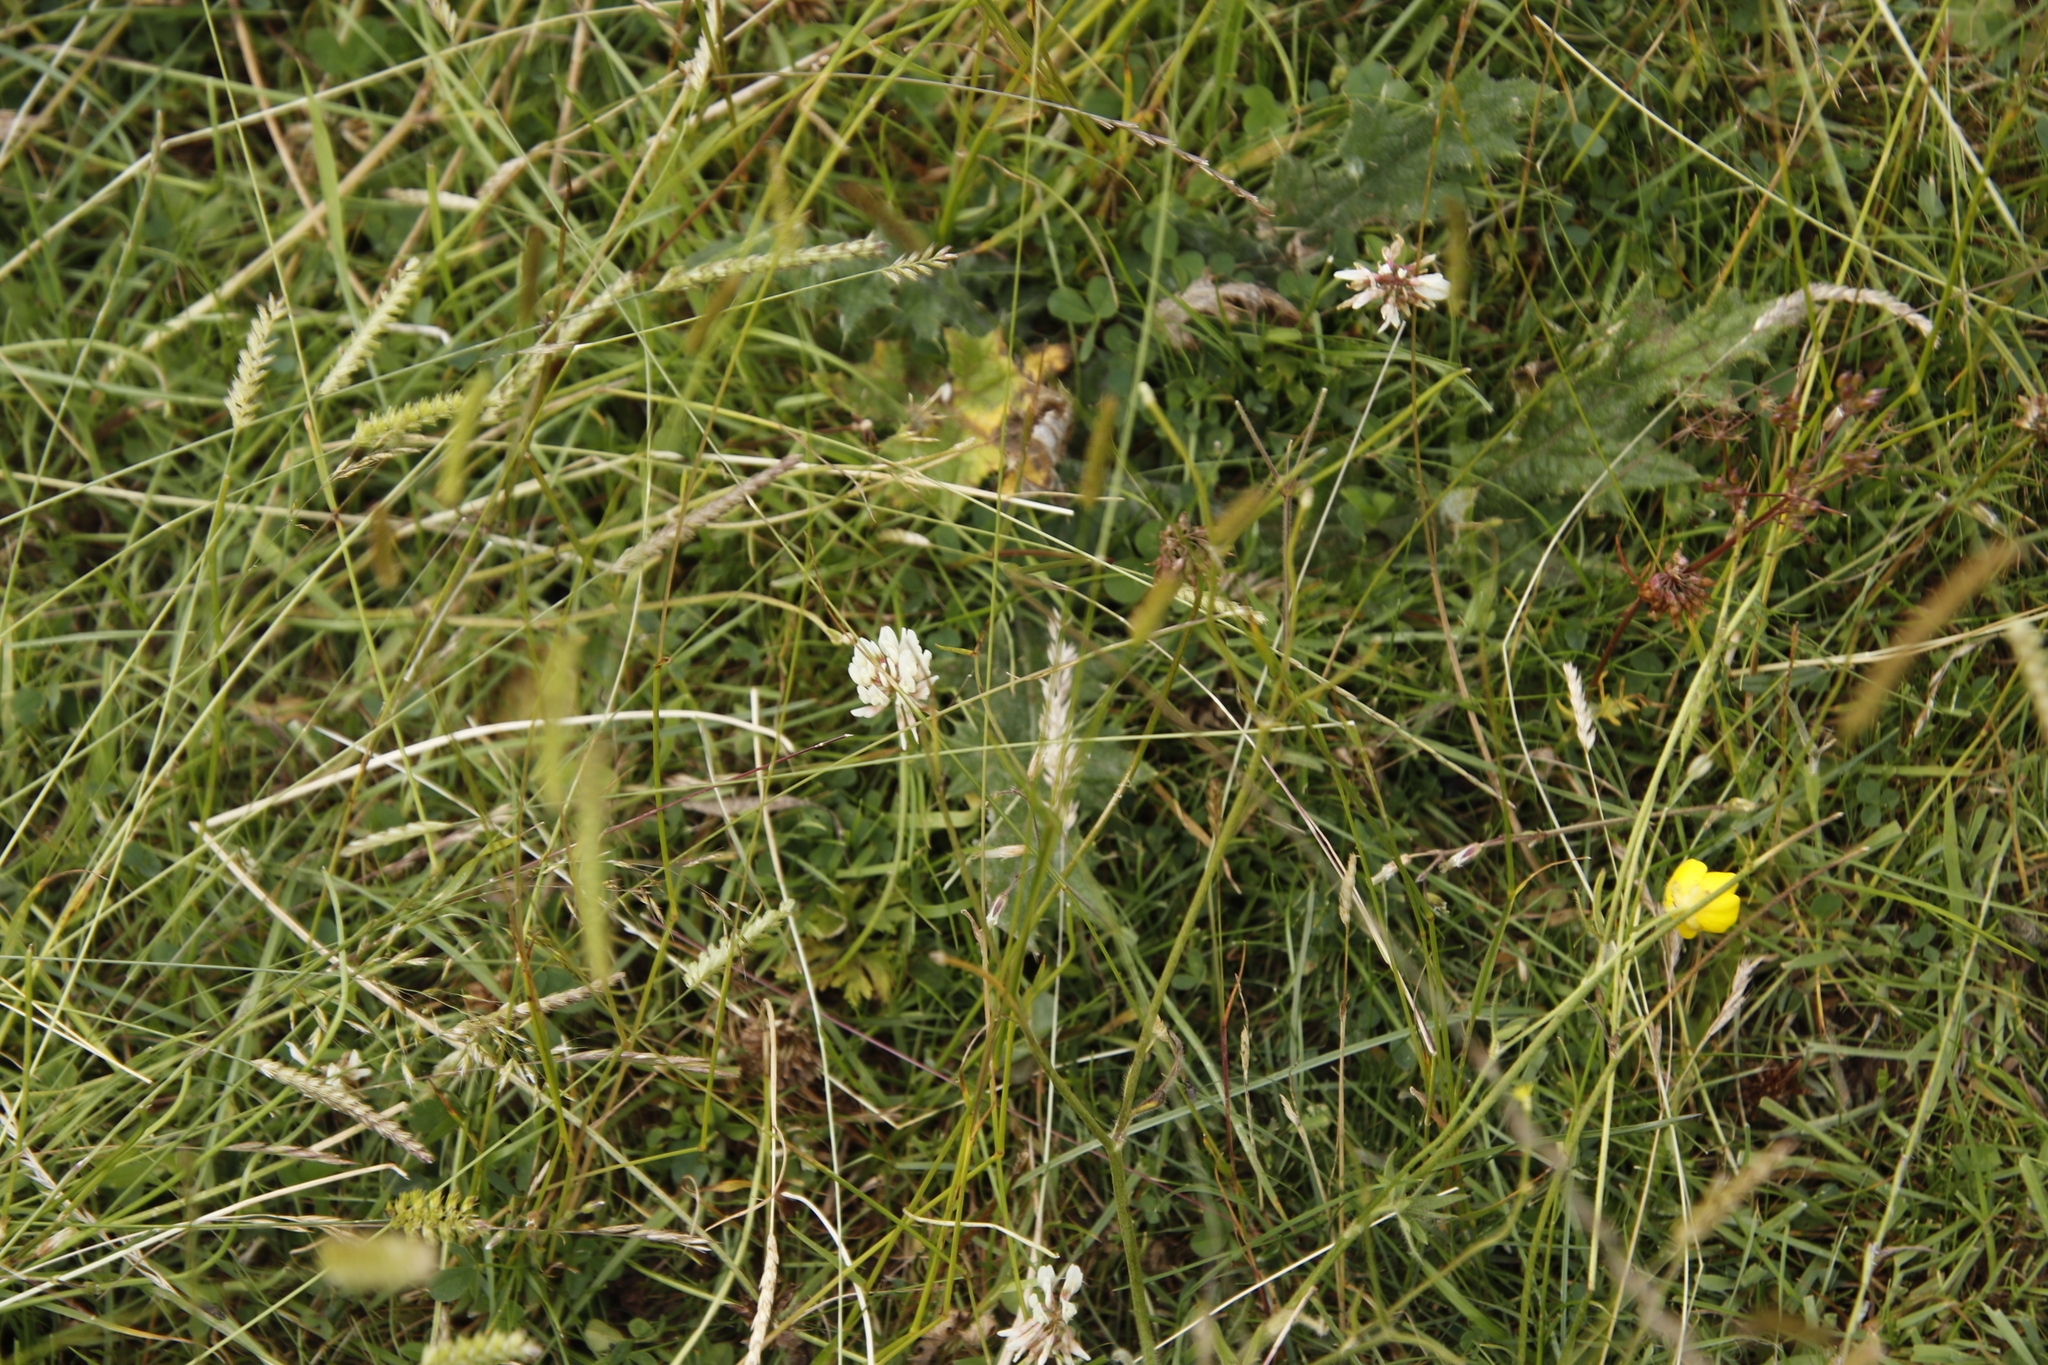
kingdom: Plantae
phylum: Tracheophyta
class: Magnoliopsida
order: Fabales
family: Fabaceae
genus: Trifolium
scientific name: Trifolium repens
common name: White clover
